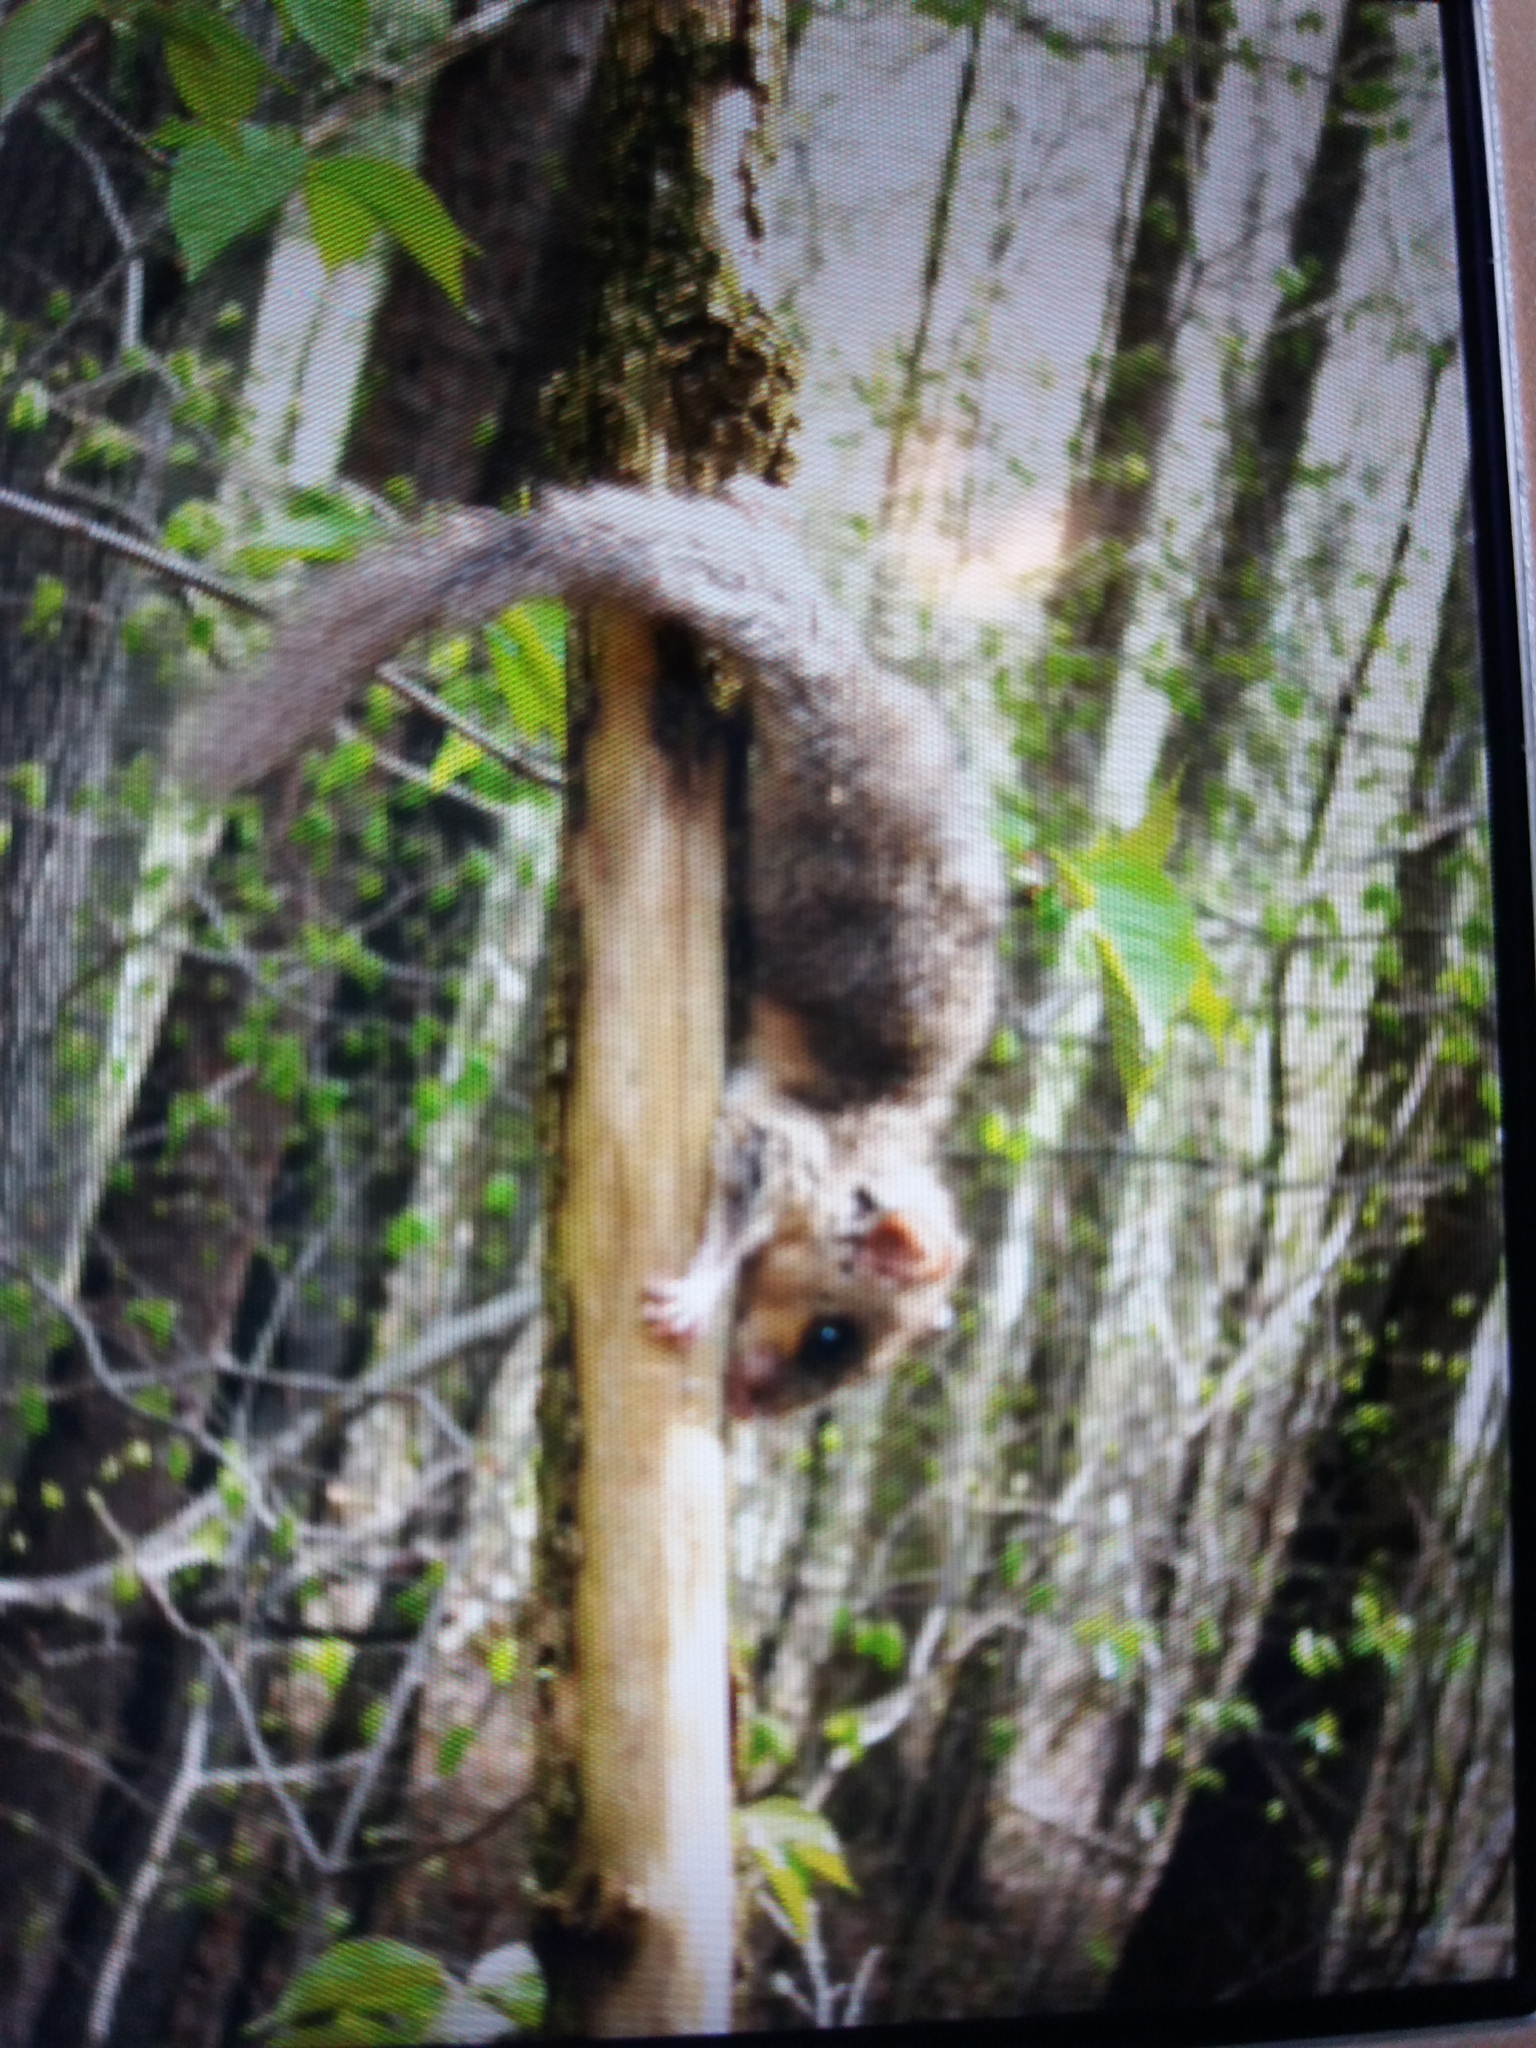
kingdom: Animalia
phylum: Chordata
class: Mammalia
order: Rodentia
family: Gliridae
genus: Glis
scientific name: Glis glis
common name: Fat dormouse
